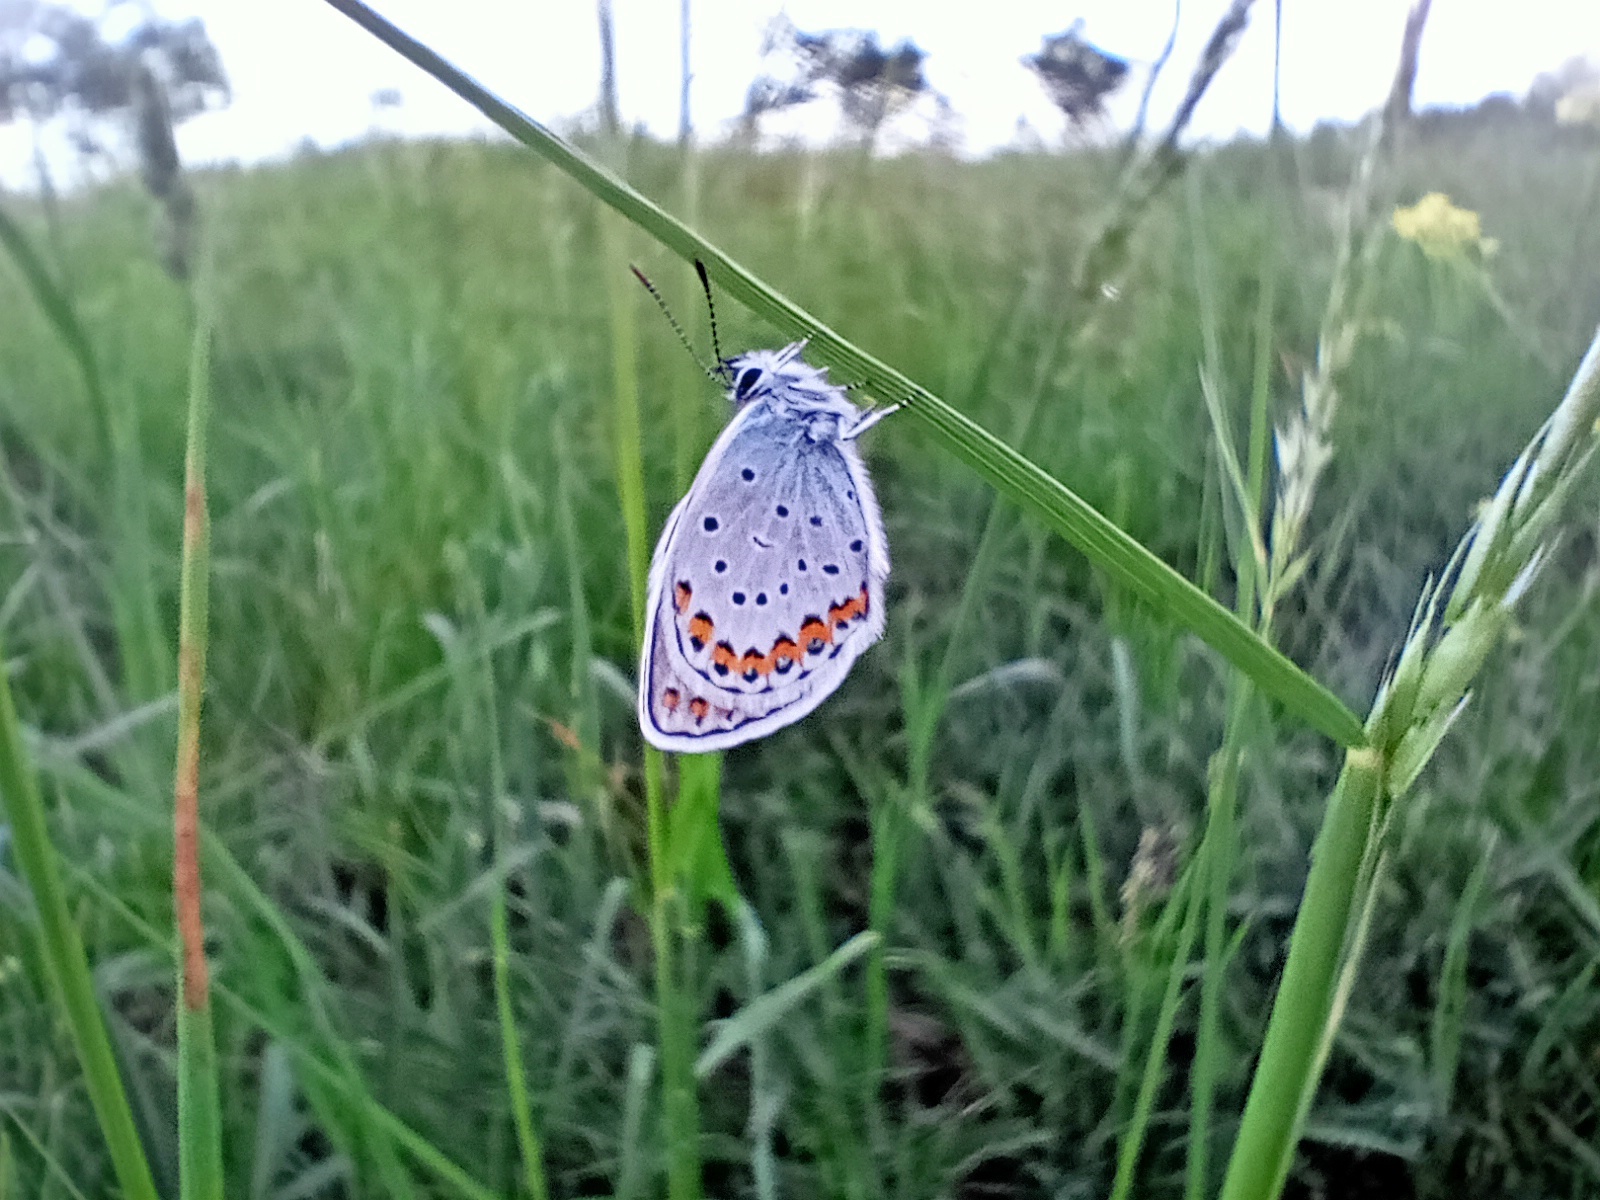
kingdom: Animalia
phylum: Arthropoda
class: Insecta
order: Lepidoptera
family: Lycaenidae
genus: Plebejus
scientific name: Plebejus argyrognomon
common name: Reverdin's blue
